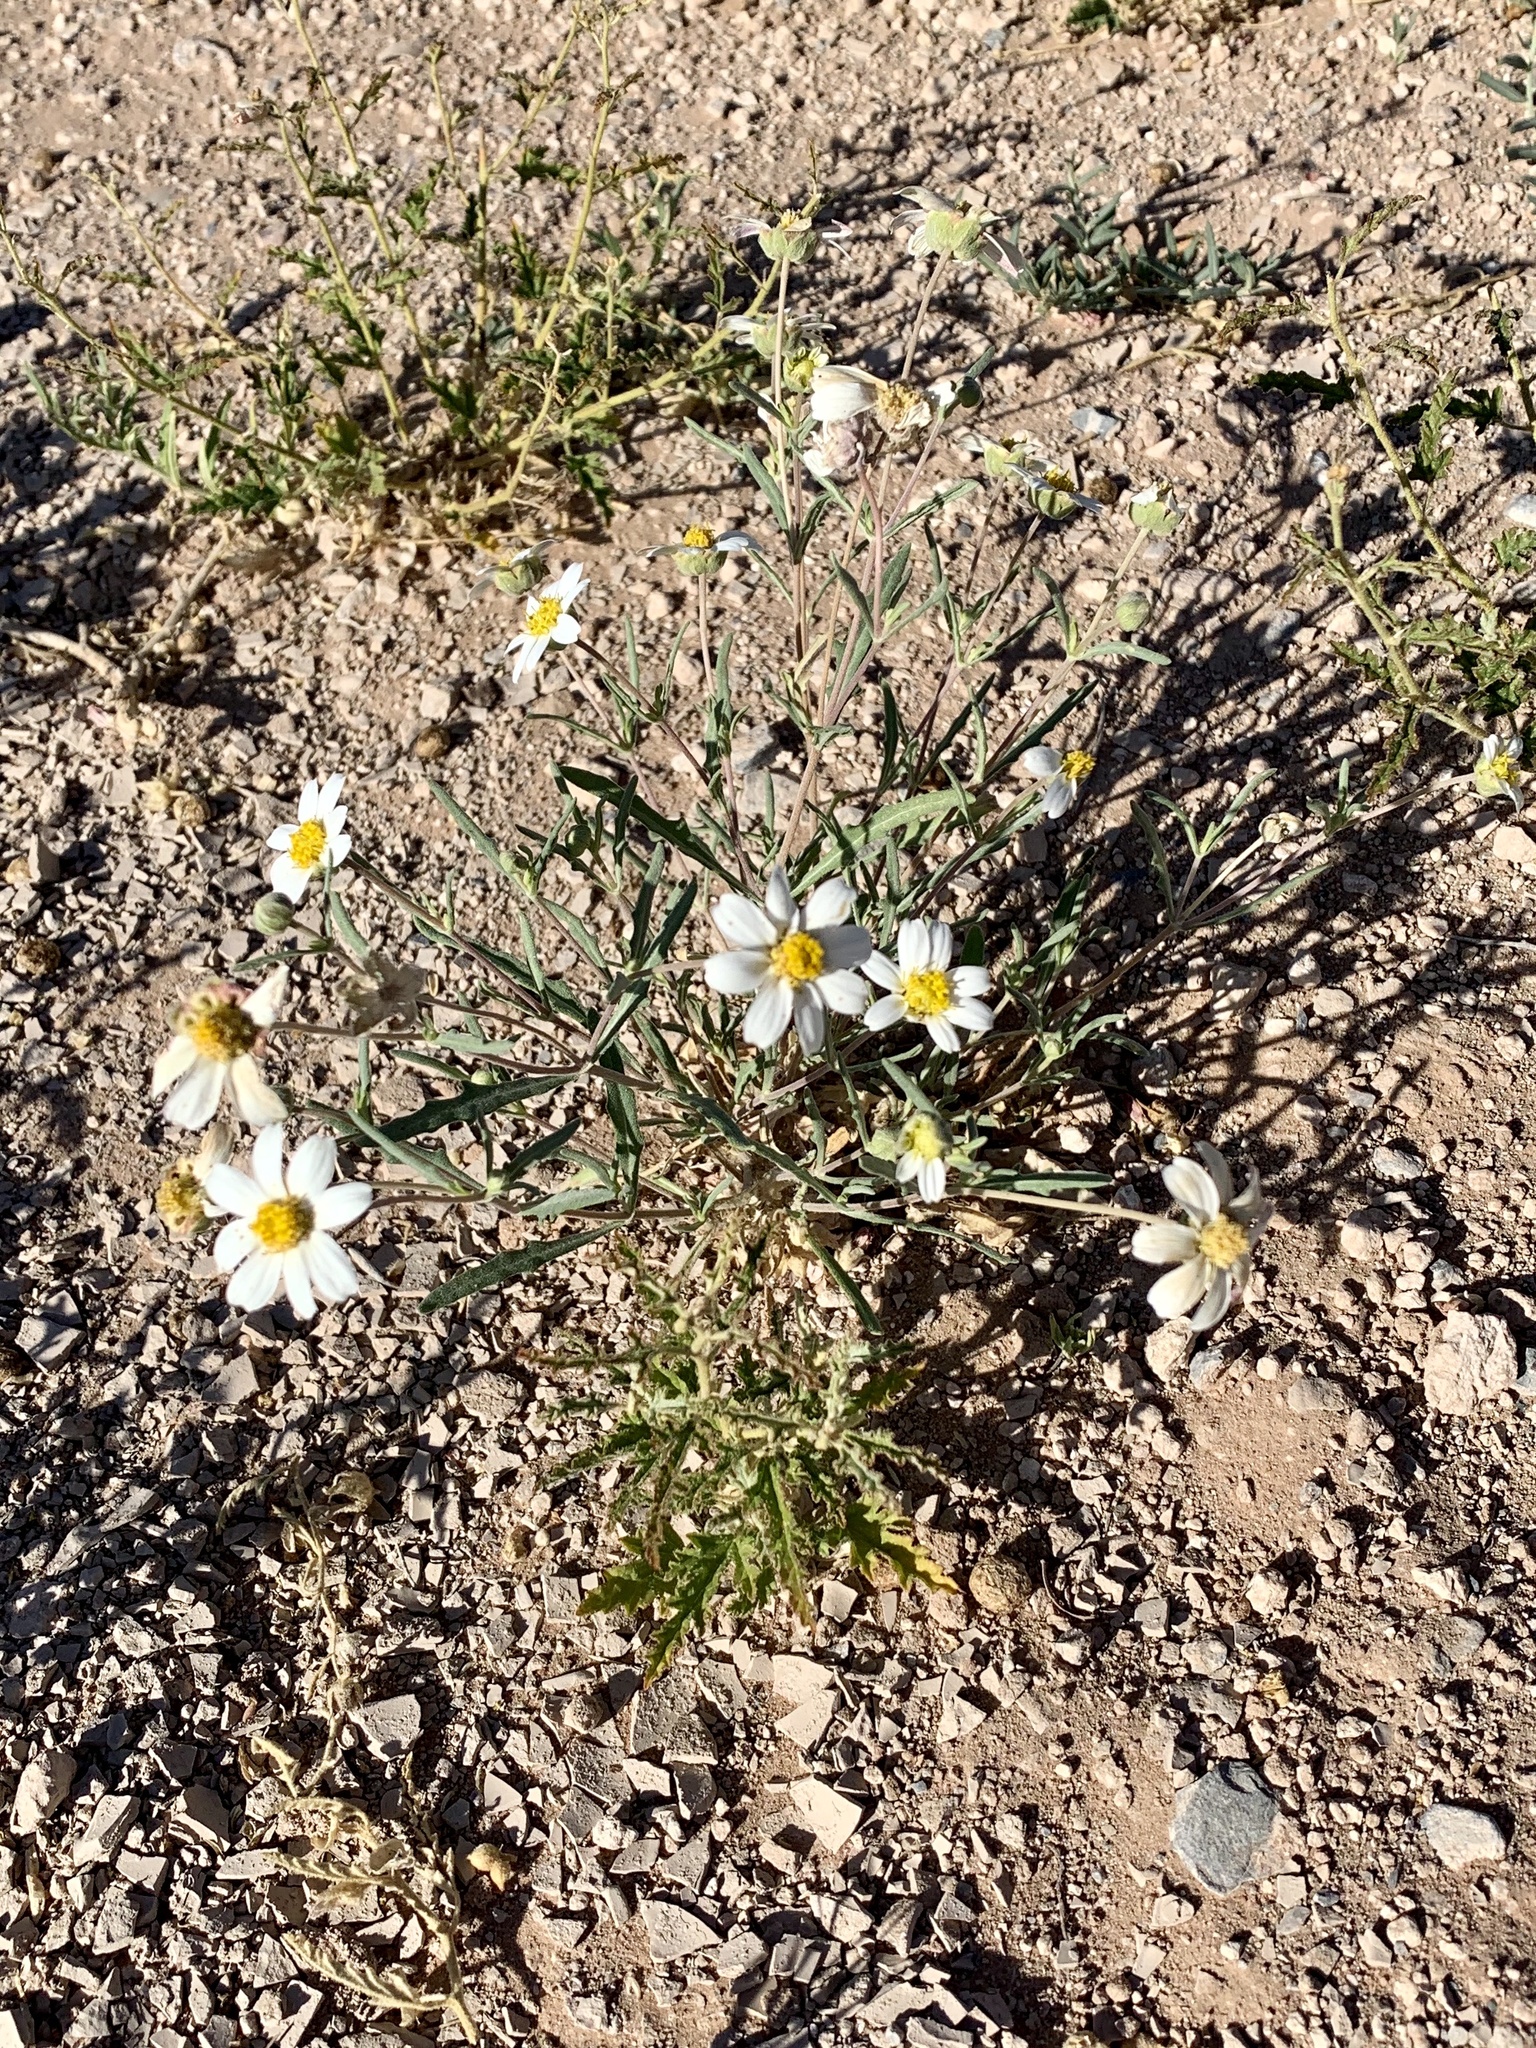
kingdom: Plantae
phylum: Tracheophyta
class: Magnoliopsida
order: Asterales
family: Asteraceae
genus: Melampodium
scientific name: Melampodium leucanthum
